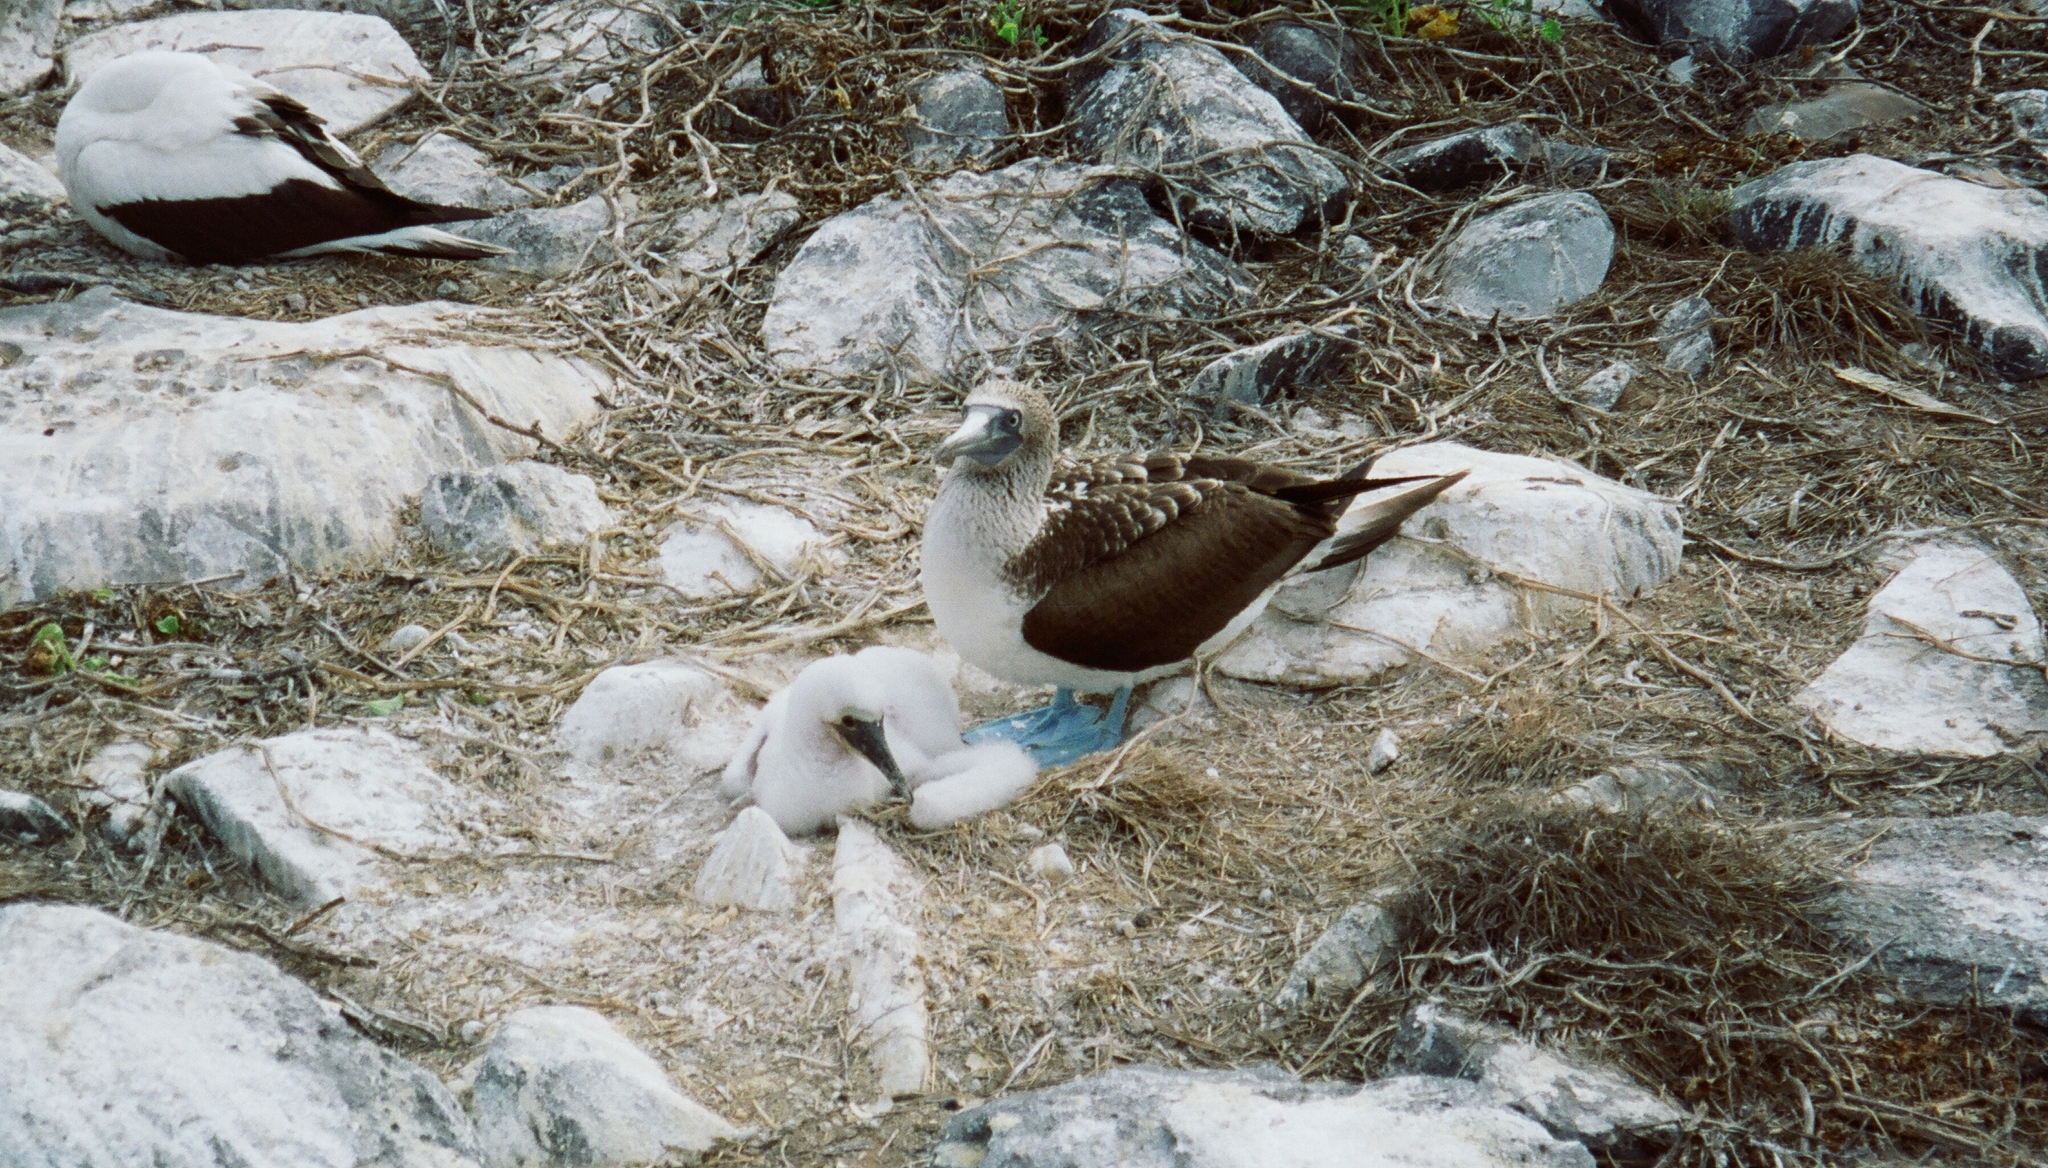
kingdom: Animalia
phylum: Chordata
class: Aves
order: Suliformes
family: Sulidae
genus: Sula
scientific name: Sula nebouxii
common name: Blue-footed booby
